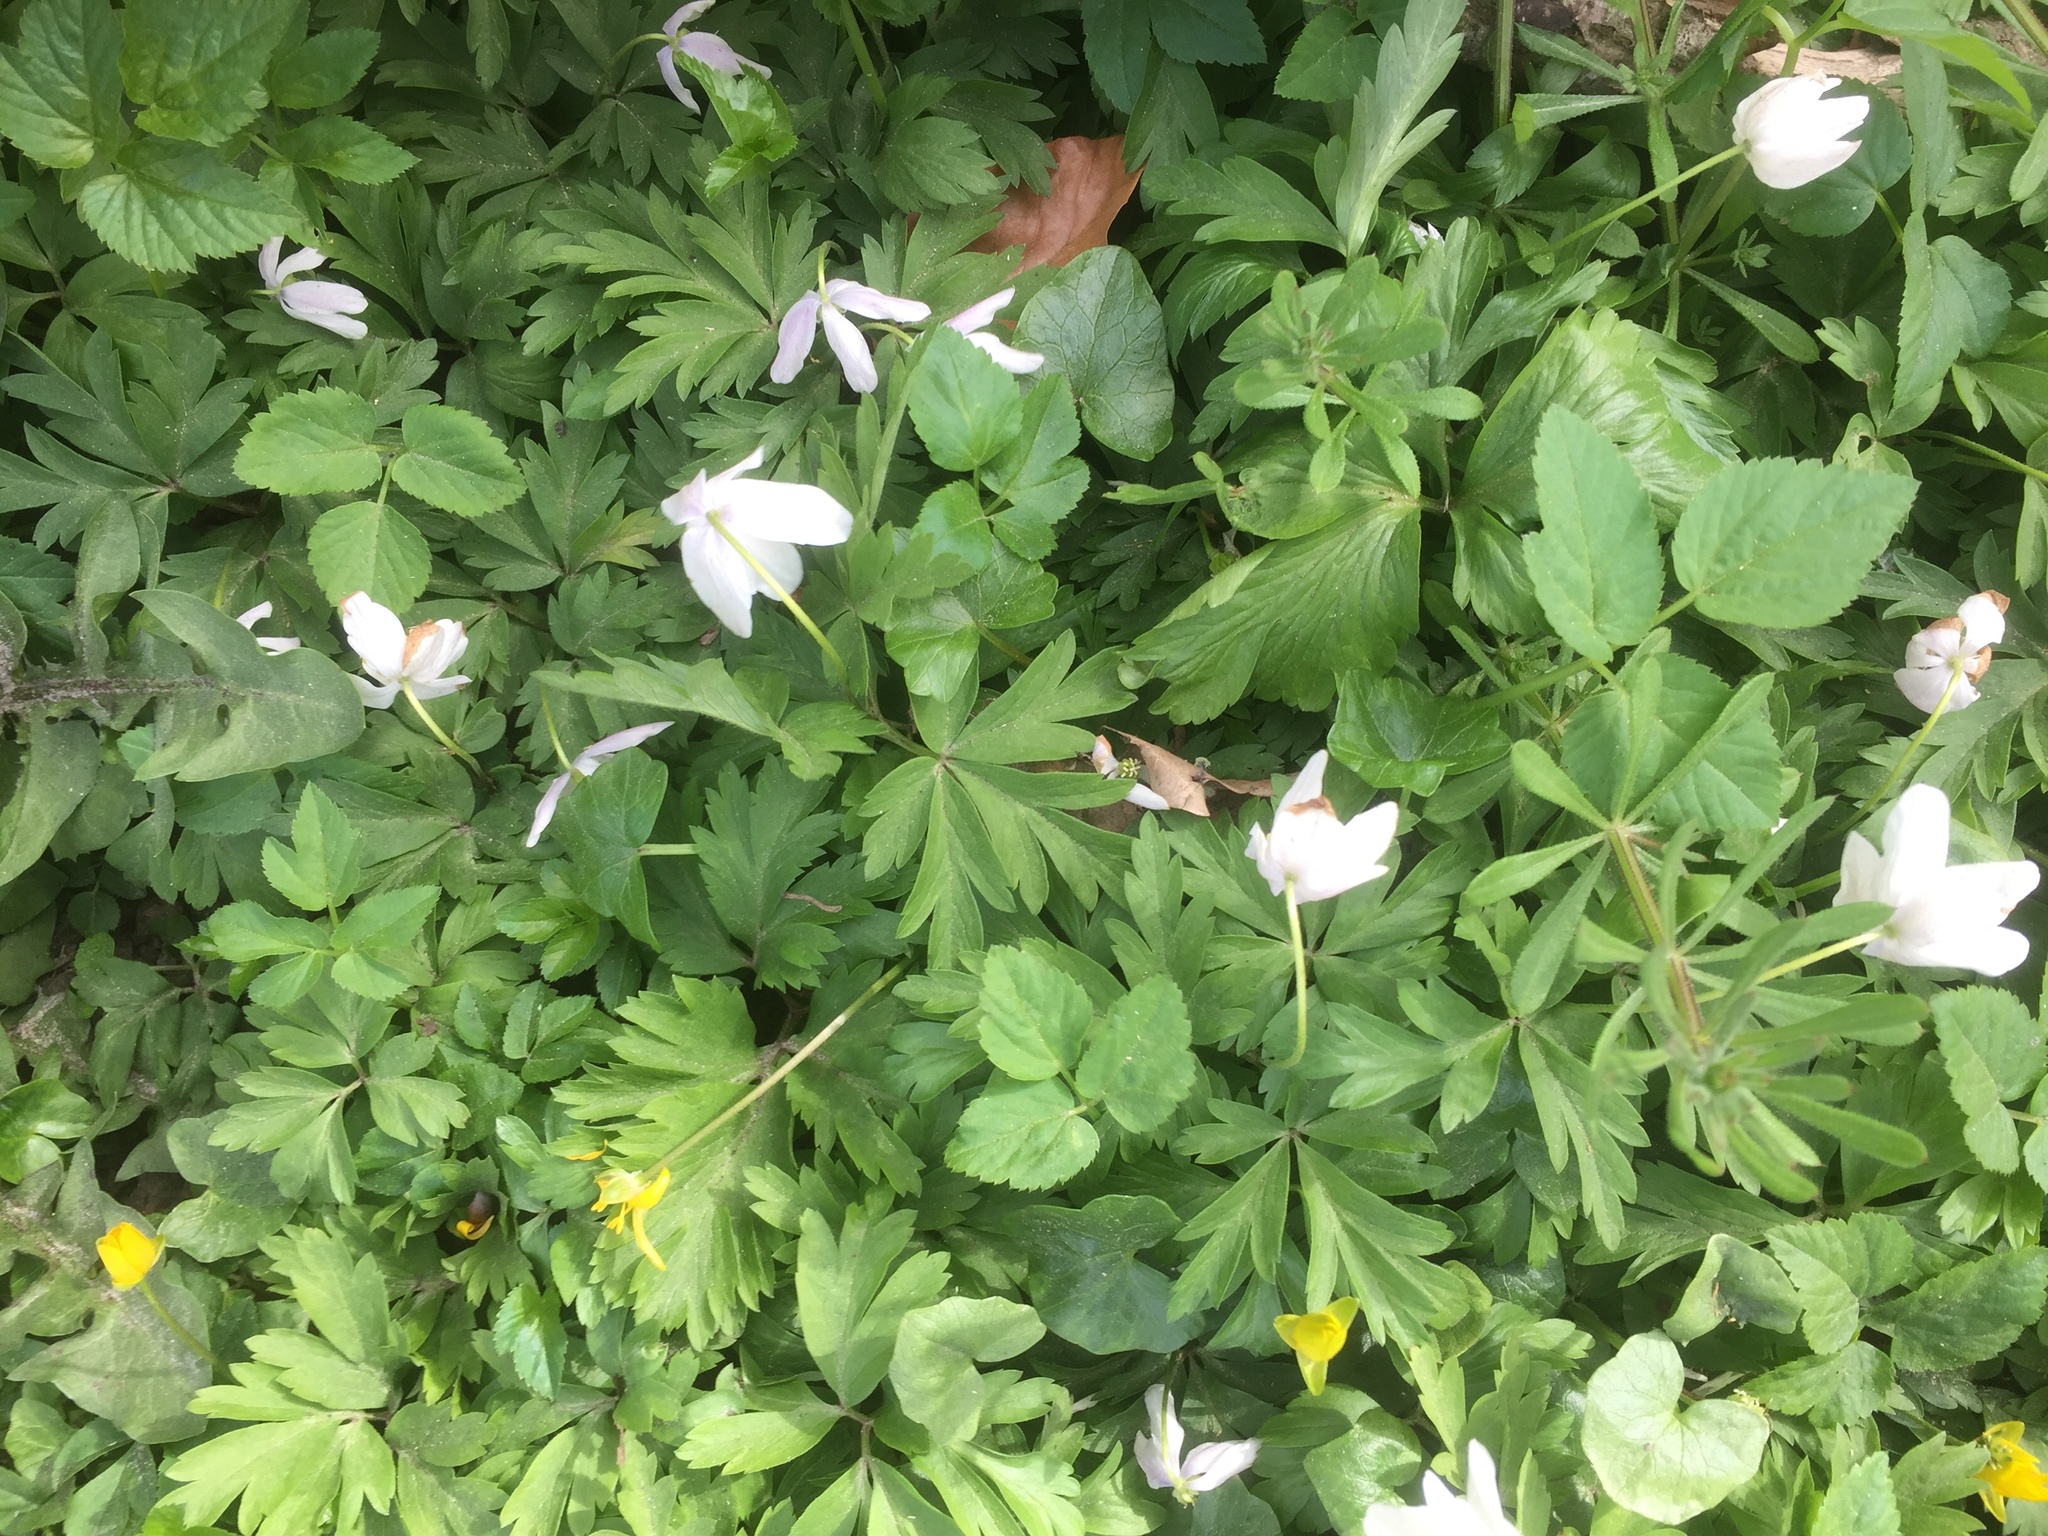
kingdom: Plantae
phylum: Tracheophyta
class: Magnoliopsida
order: Ranunculales
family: Ranunculaceae
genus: Anemone
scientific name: Anemone nemorosa
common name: Wood anemone
